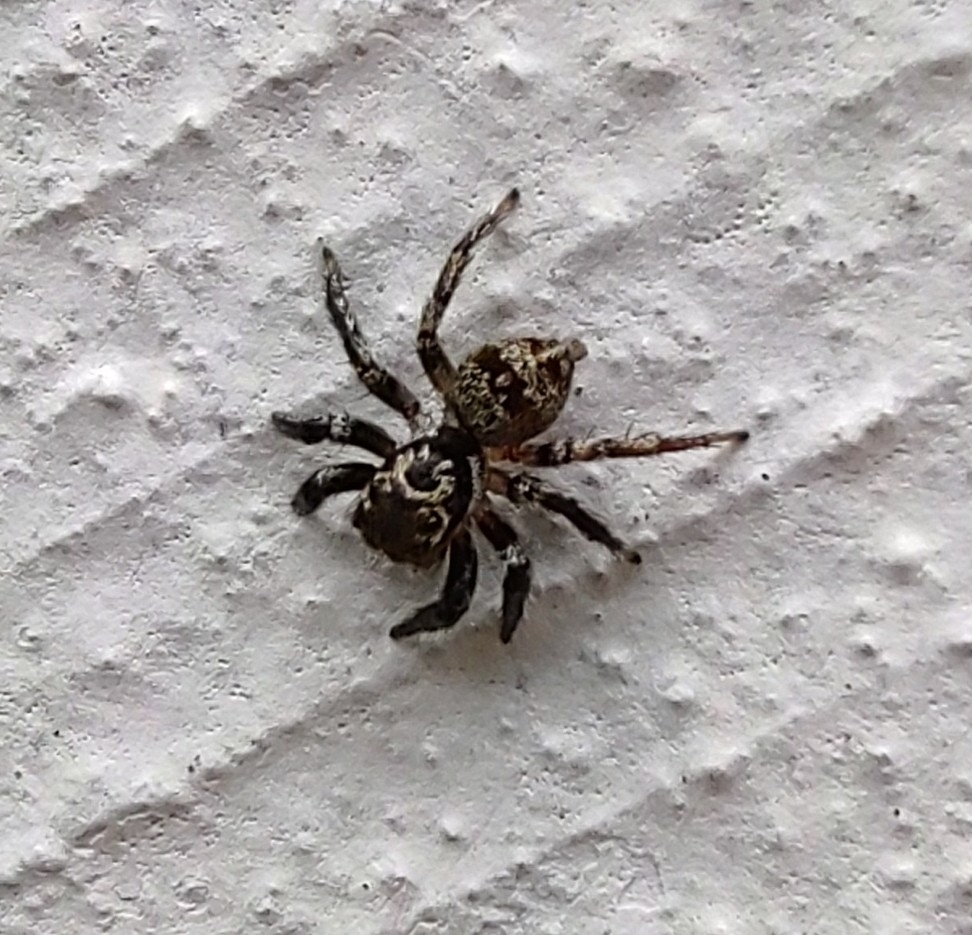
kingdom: Animalia
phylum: Arthropoda
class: Arachnida
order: Araneae
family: Salticidae
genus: Corythalia
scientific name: Corythalia conferta
